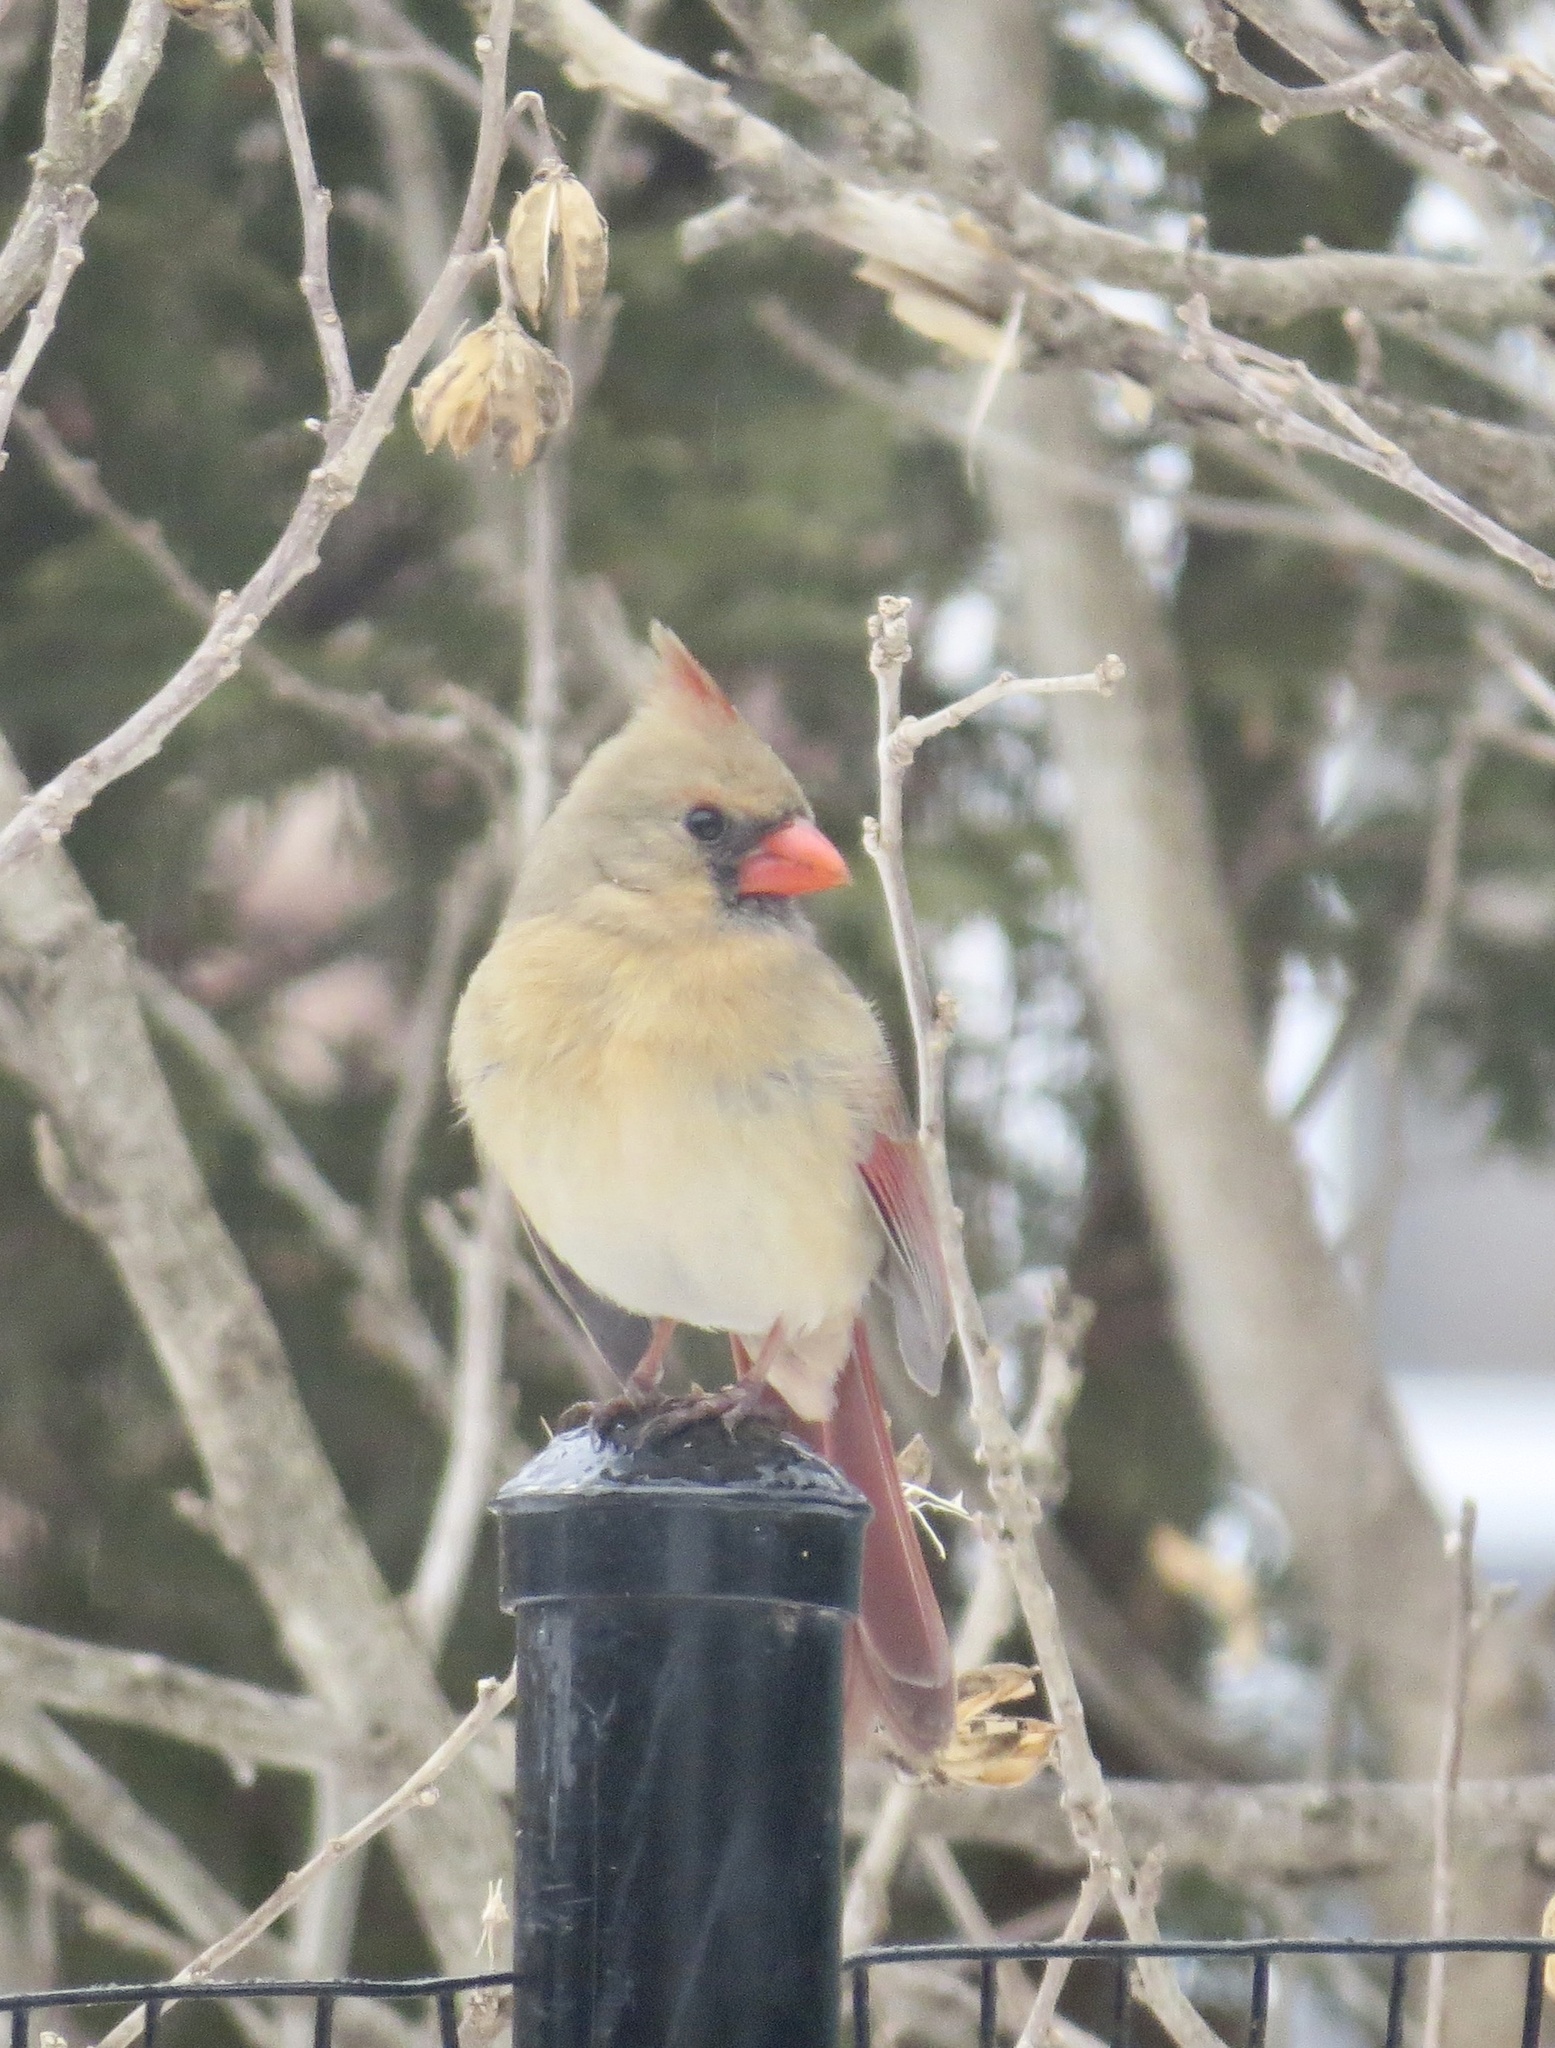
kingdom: Animalia
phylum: Chordata
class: Aves
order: Passeriformes
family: Cardinalidae
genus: Cardinalis
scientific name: Cardinalis cardinalis
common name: Northern cardinal
